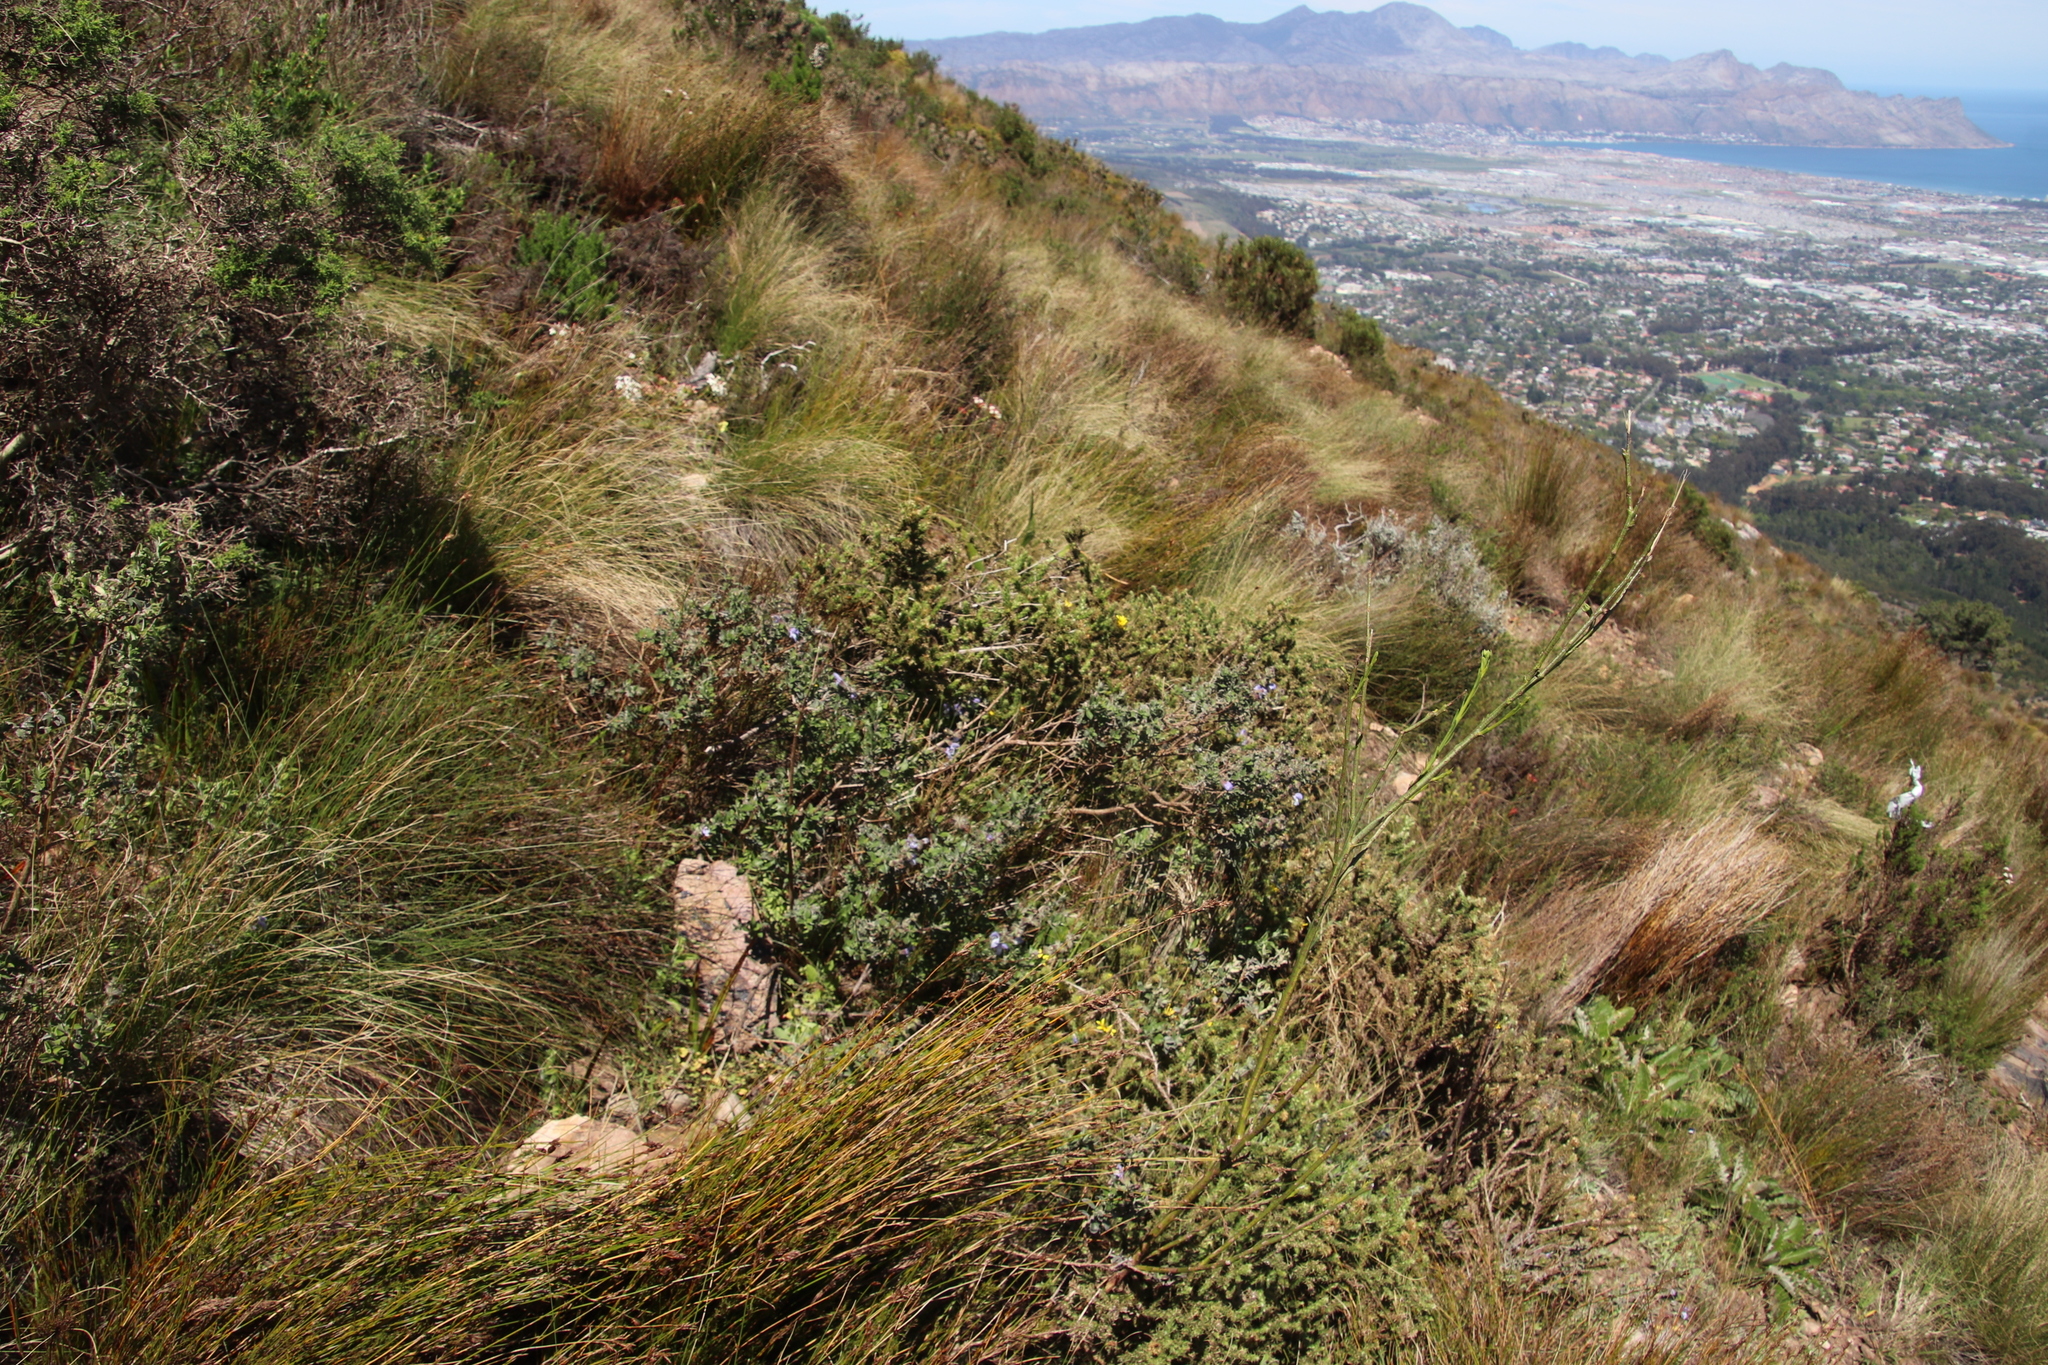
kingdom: Plantae
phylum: Tracheophyta
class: Magnoliopsida
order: Lamiales
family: Lamiaceae
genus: Salvia
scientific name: Salvia africana
